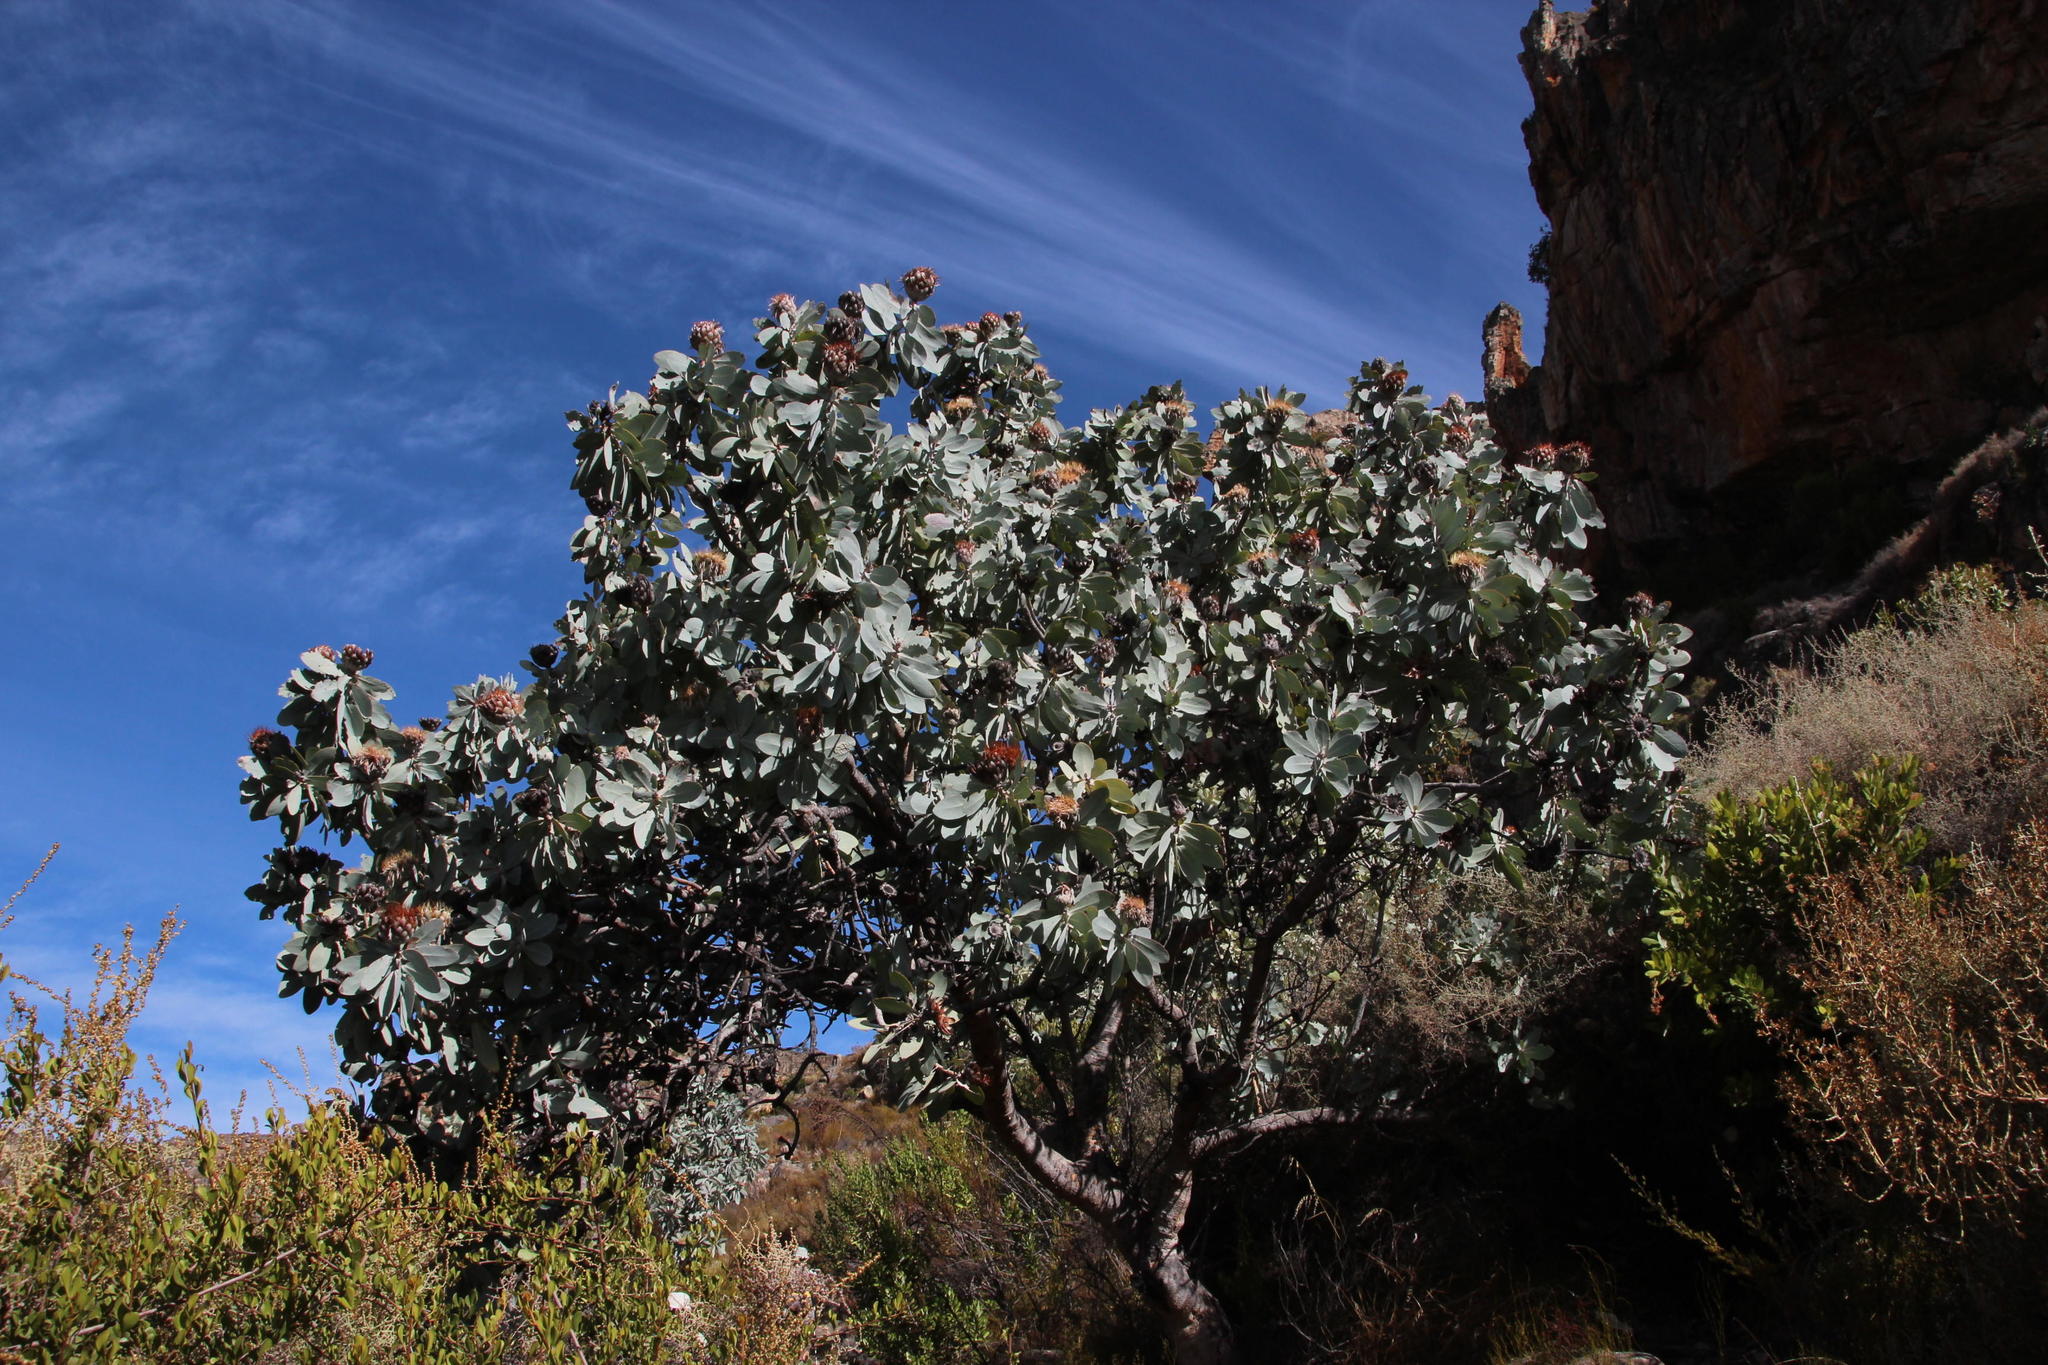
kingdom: Plantae
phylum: Tracheophyta
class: Magnoliopsida
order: Proteales
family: Proteaceae
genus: Protea
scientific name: Protea nitida
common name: Tree protea
